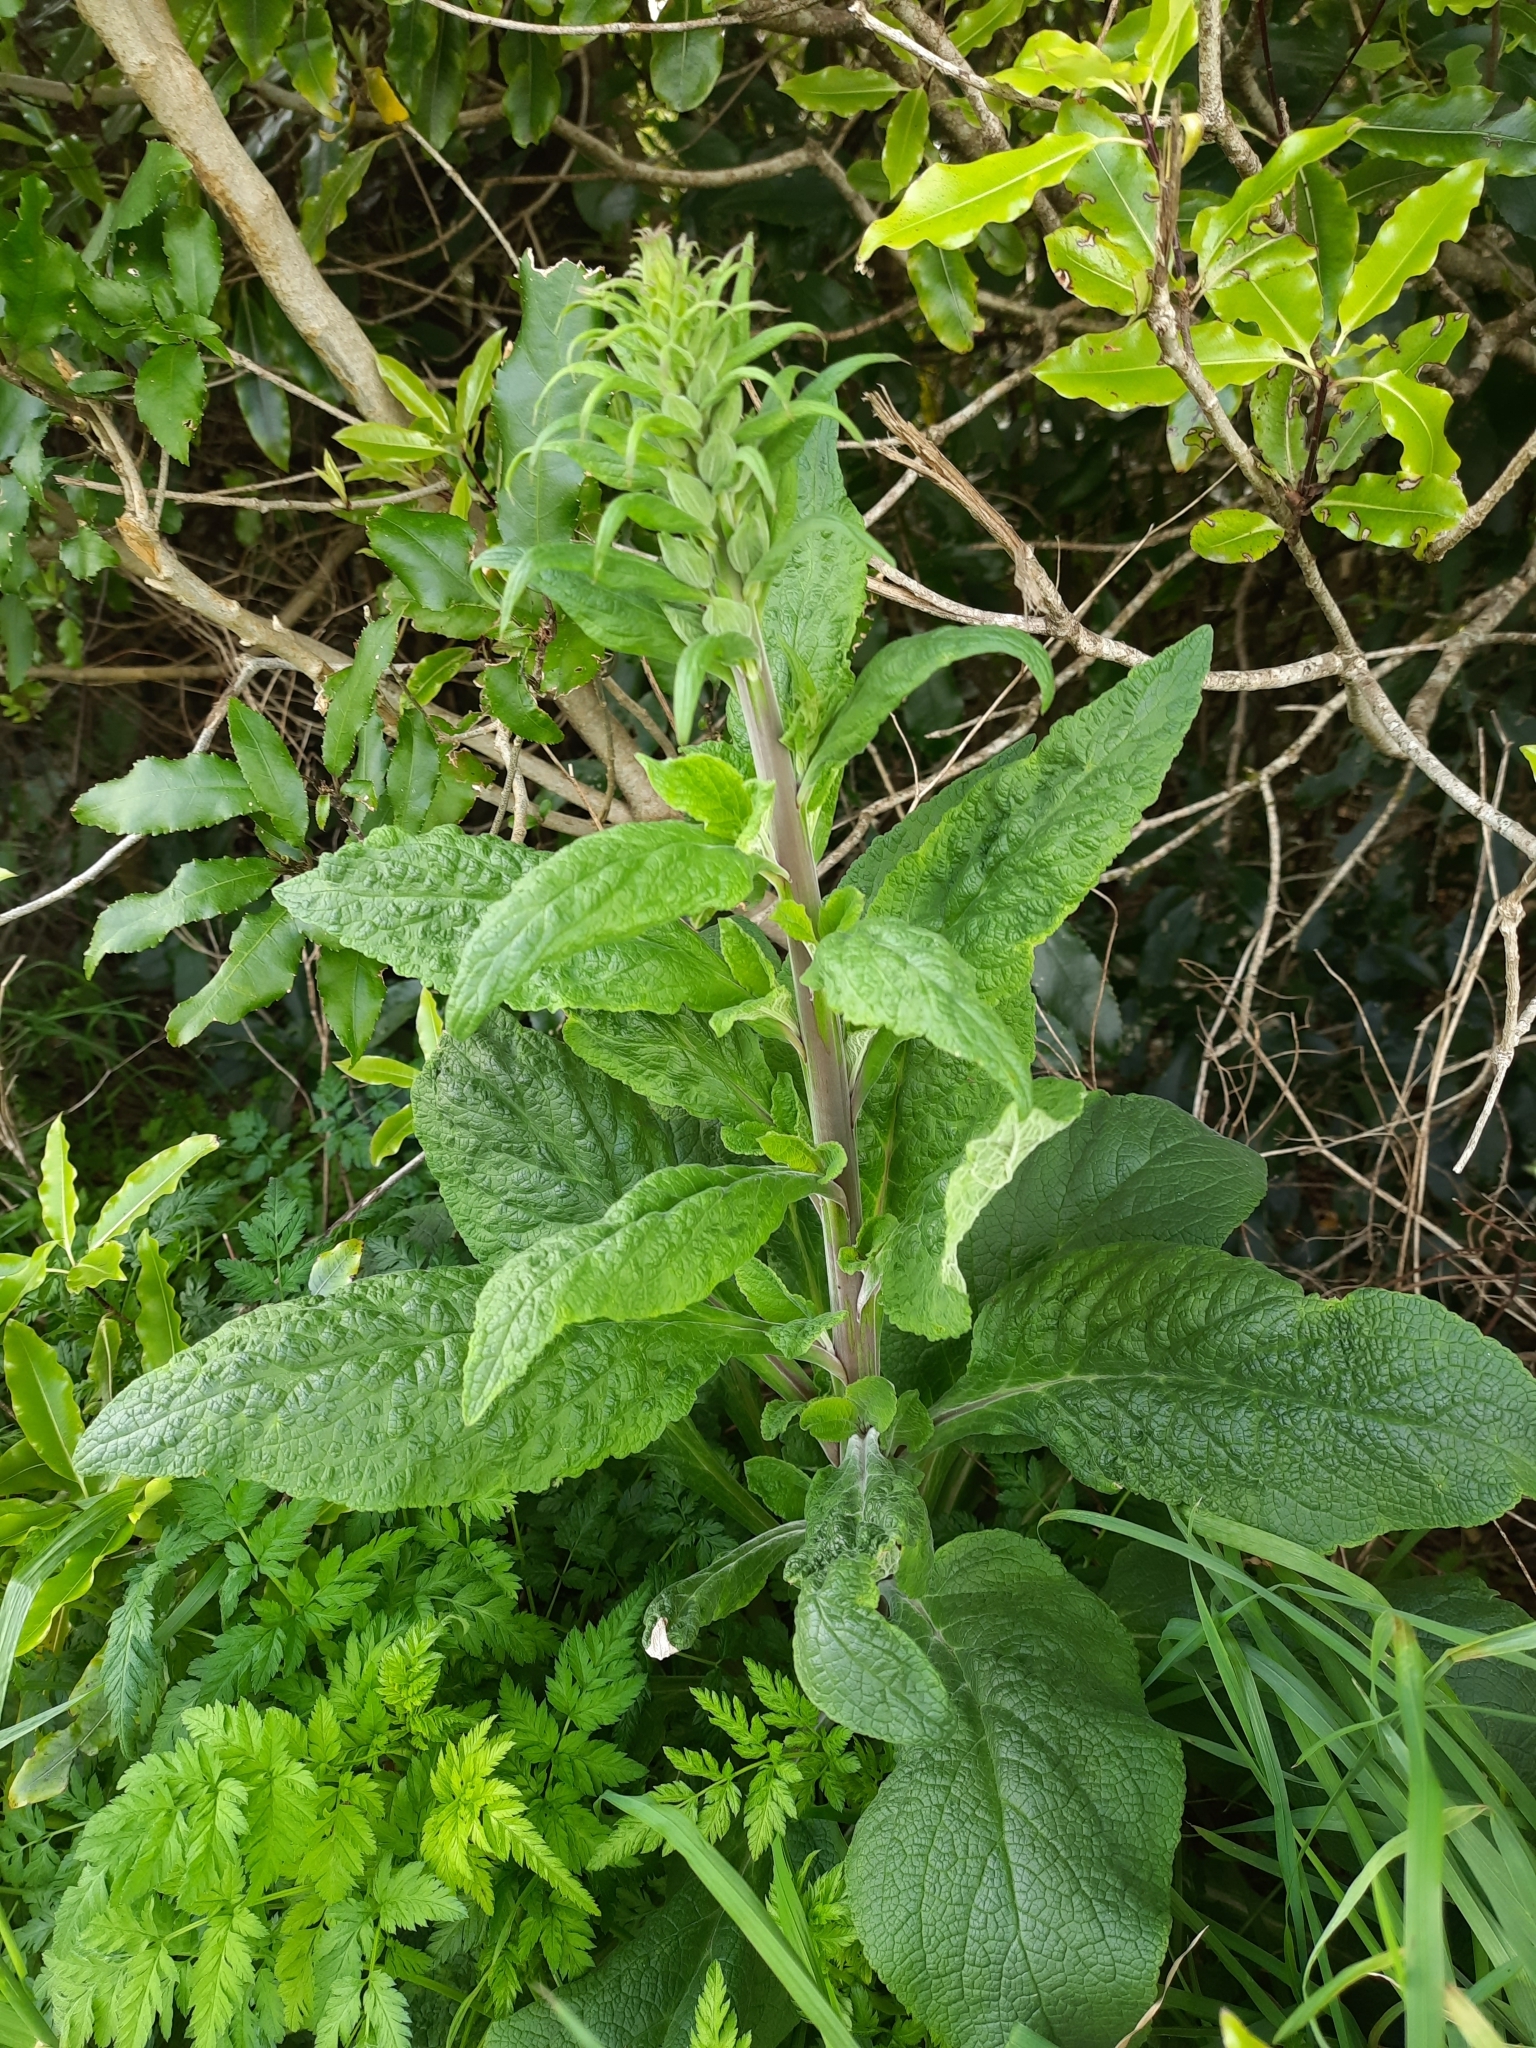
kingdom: Plantae
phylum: Tracheophyta
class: Magnoliopsida
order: Lamiales
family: Plantaginaceae
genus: Digitalis
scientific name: Digitalis purpurea
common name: Foxglove
